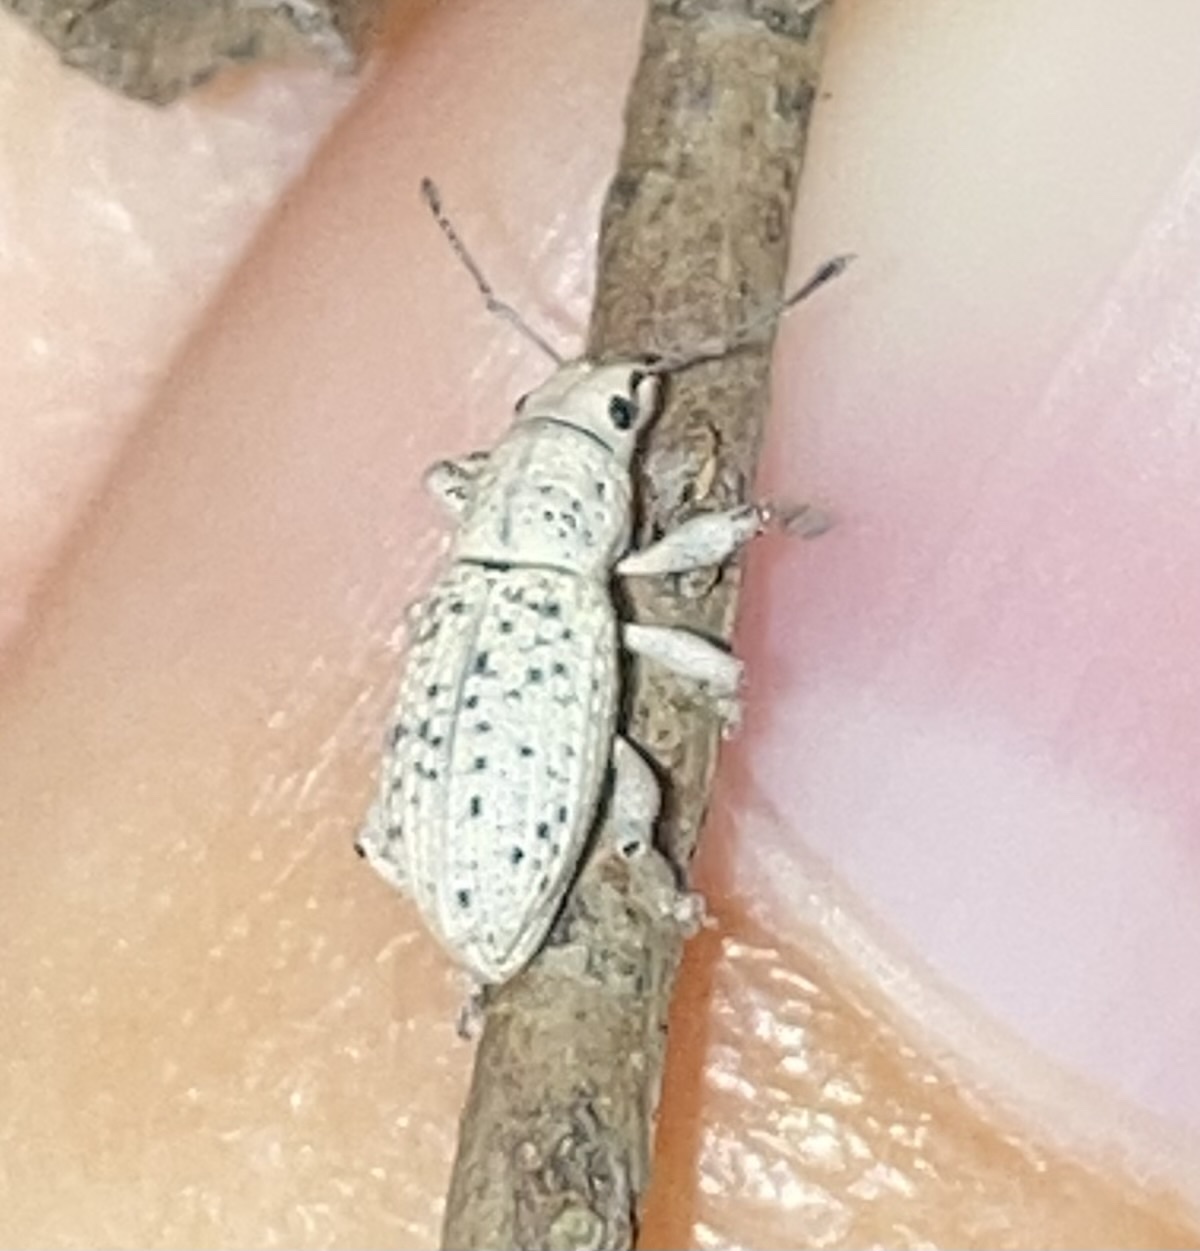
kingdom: Animalia
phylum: Arthropoda
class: Insecta
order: Coleoptera
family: Curculionidae
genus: Artipus
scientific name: Artipus floridanus
